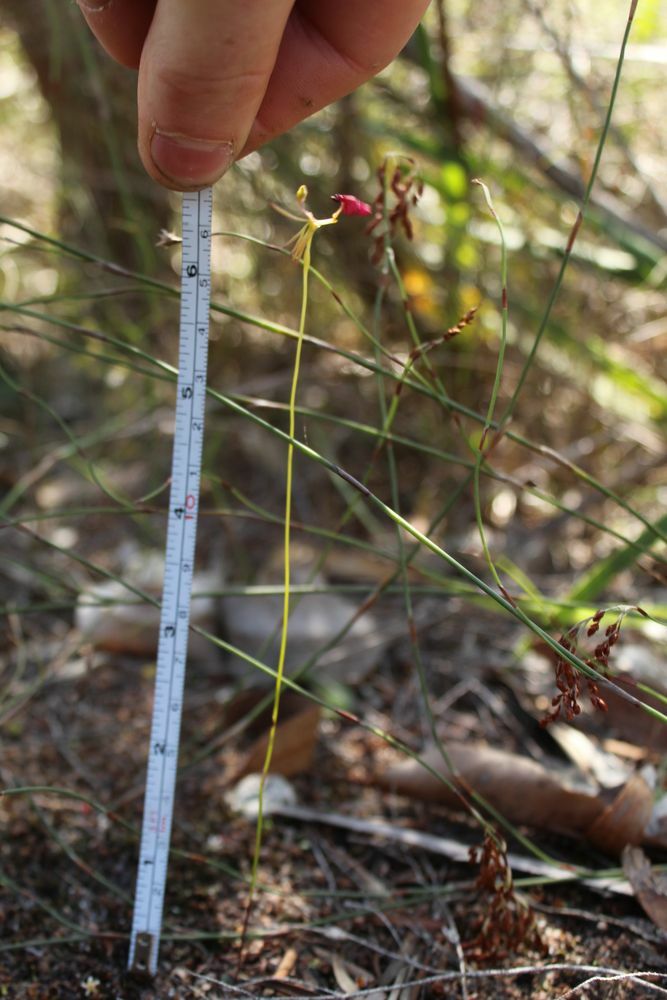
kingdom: Plantae
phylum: Tracheophyta
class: Liliopsida
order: Asparagales
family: Orchidaceae
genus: Drakaea
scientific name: Drakaea glyptodon
